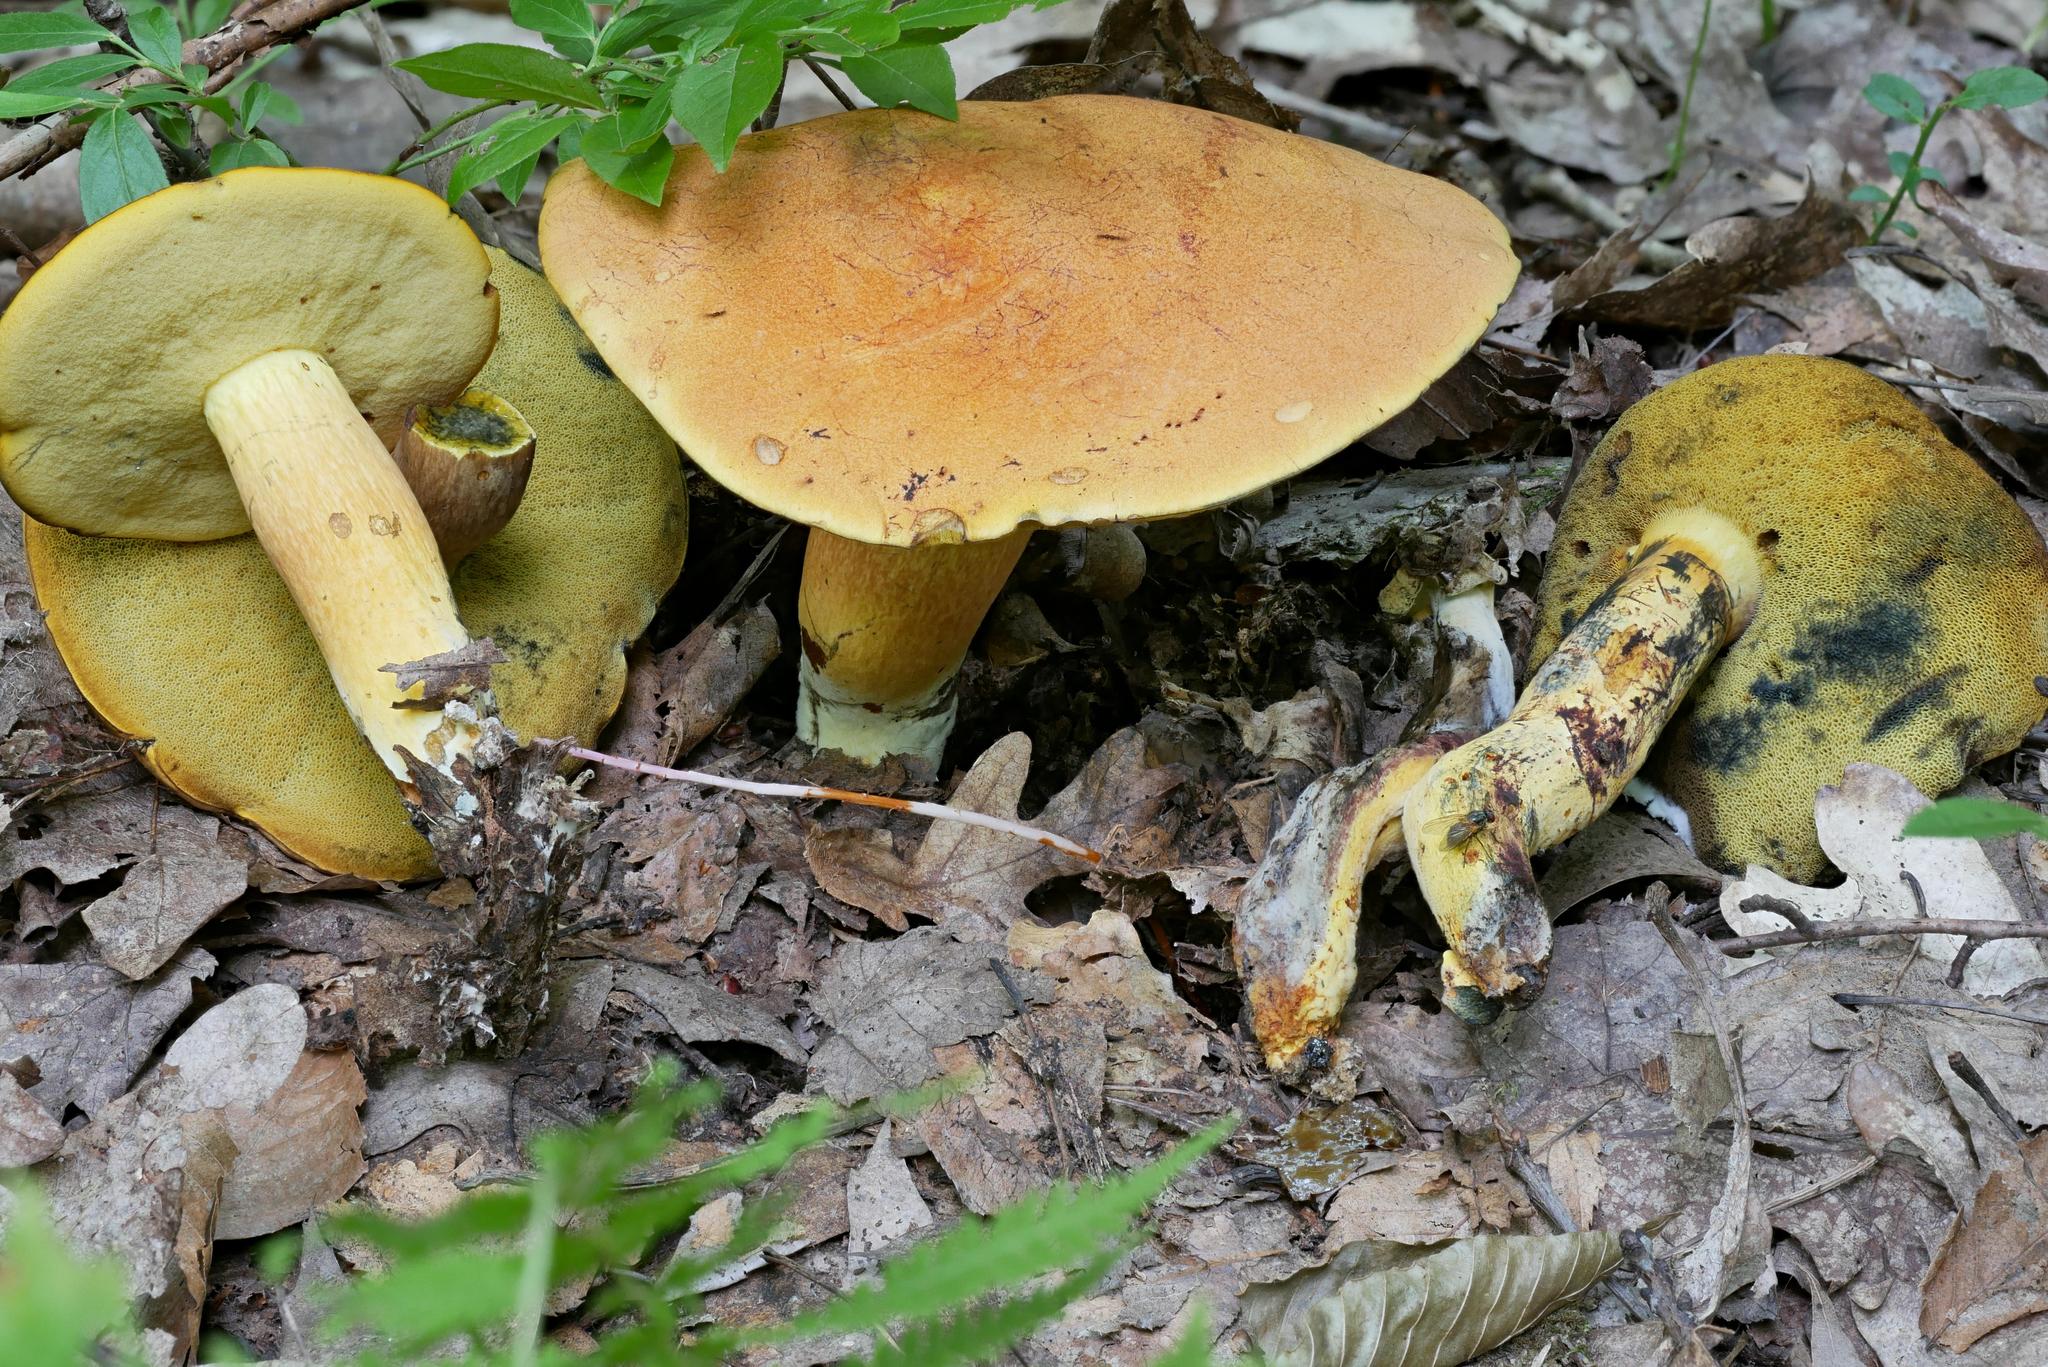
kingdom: Fungi
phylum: Basidiomycota
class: Agaricomycetes
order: Boletales
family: Boletaceae
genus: Neoboletus
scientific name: Neoboletus praestigiator
